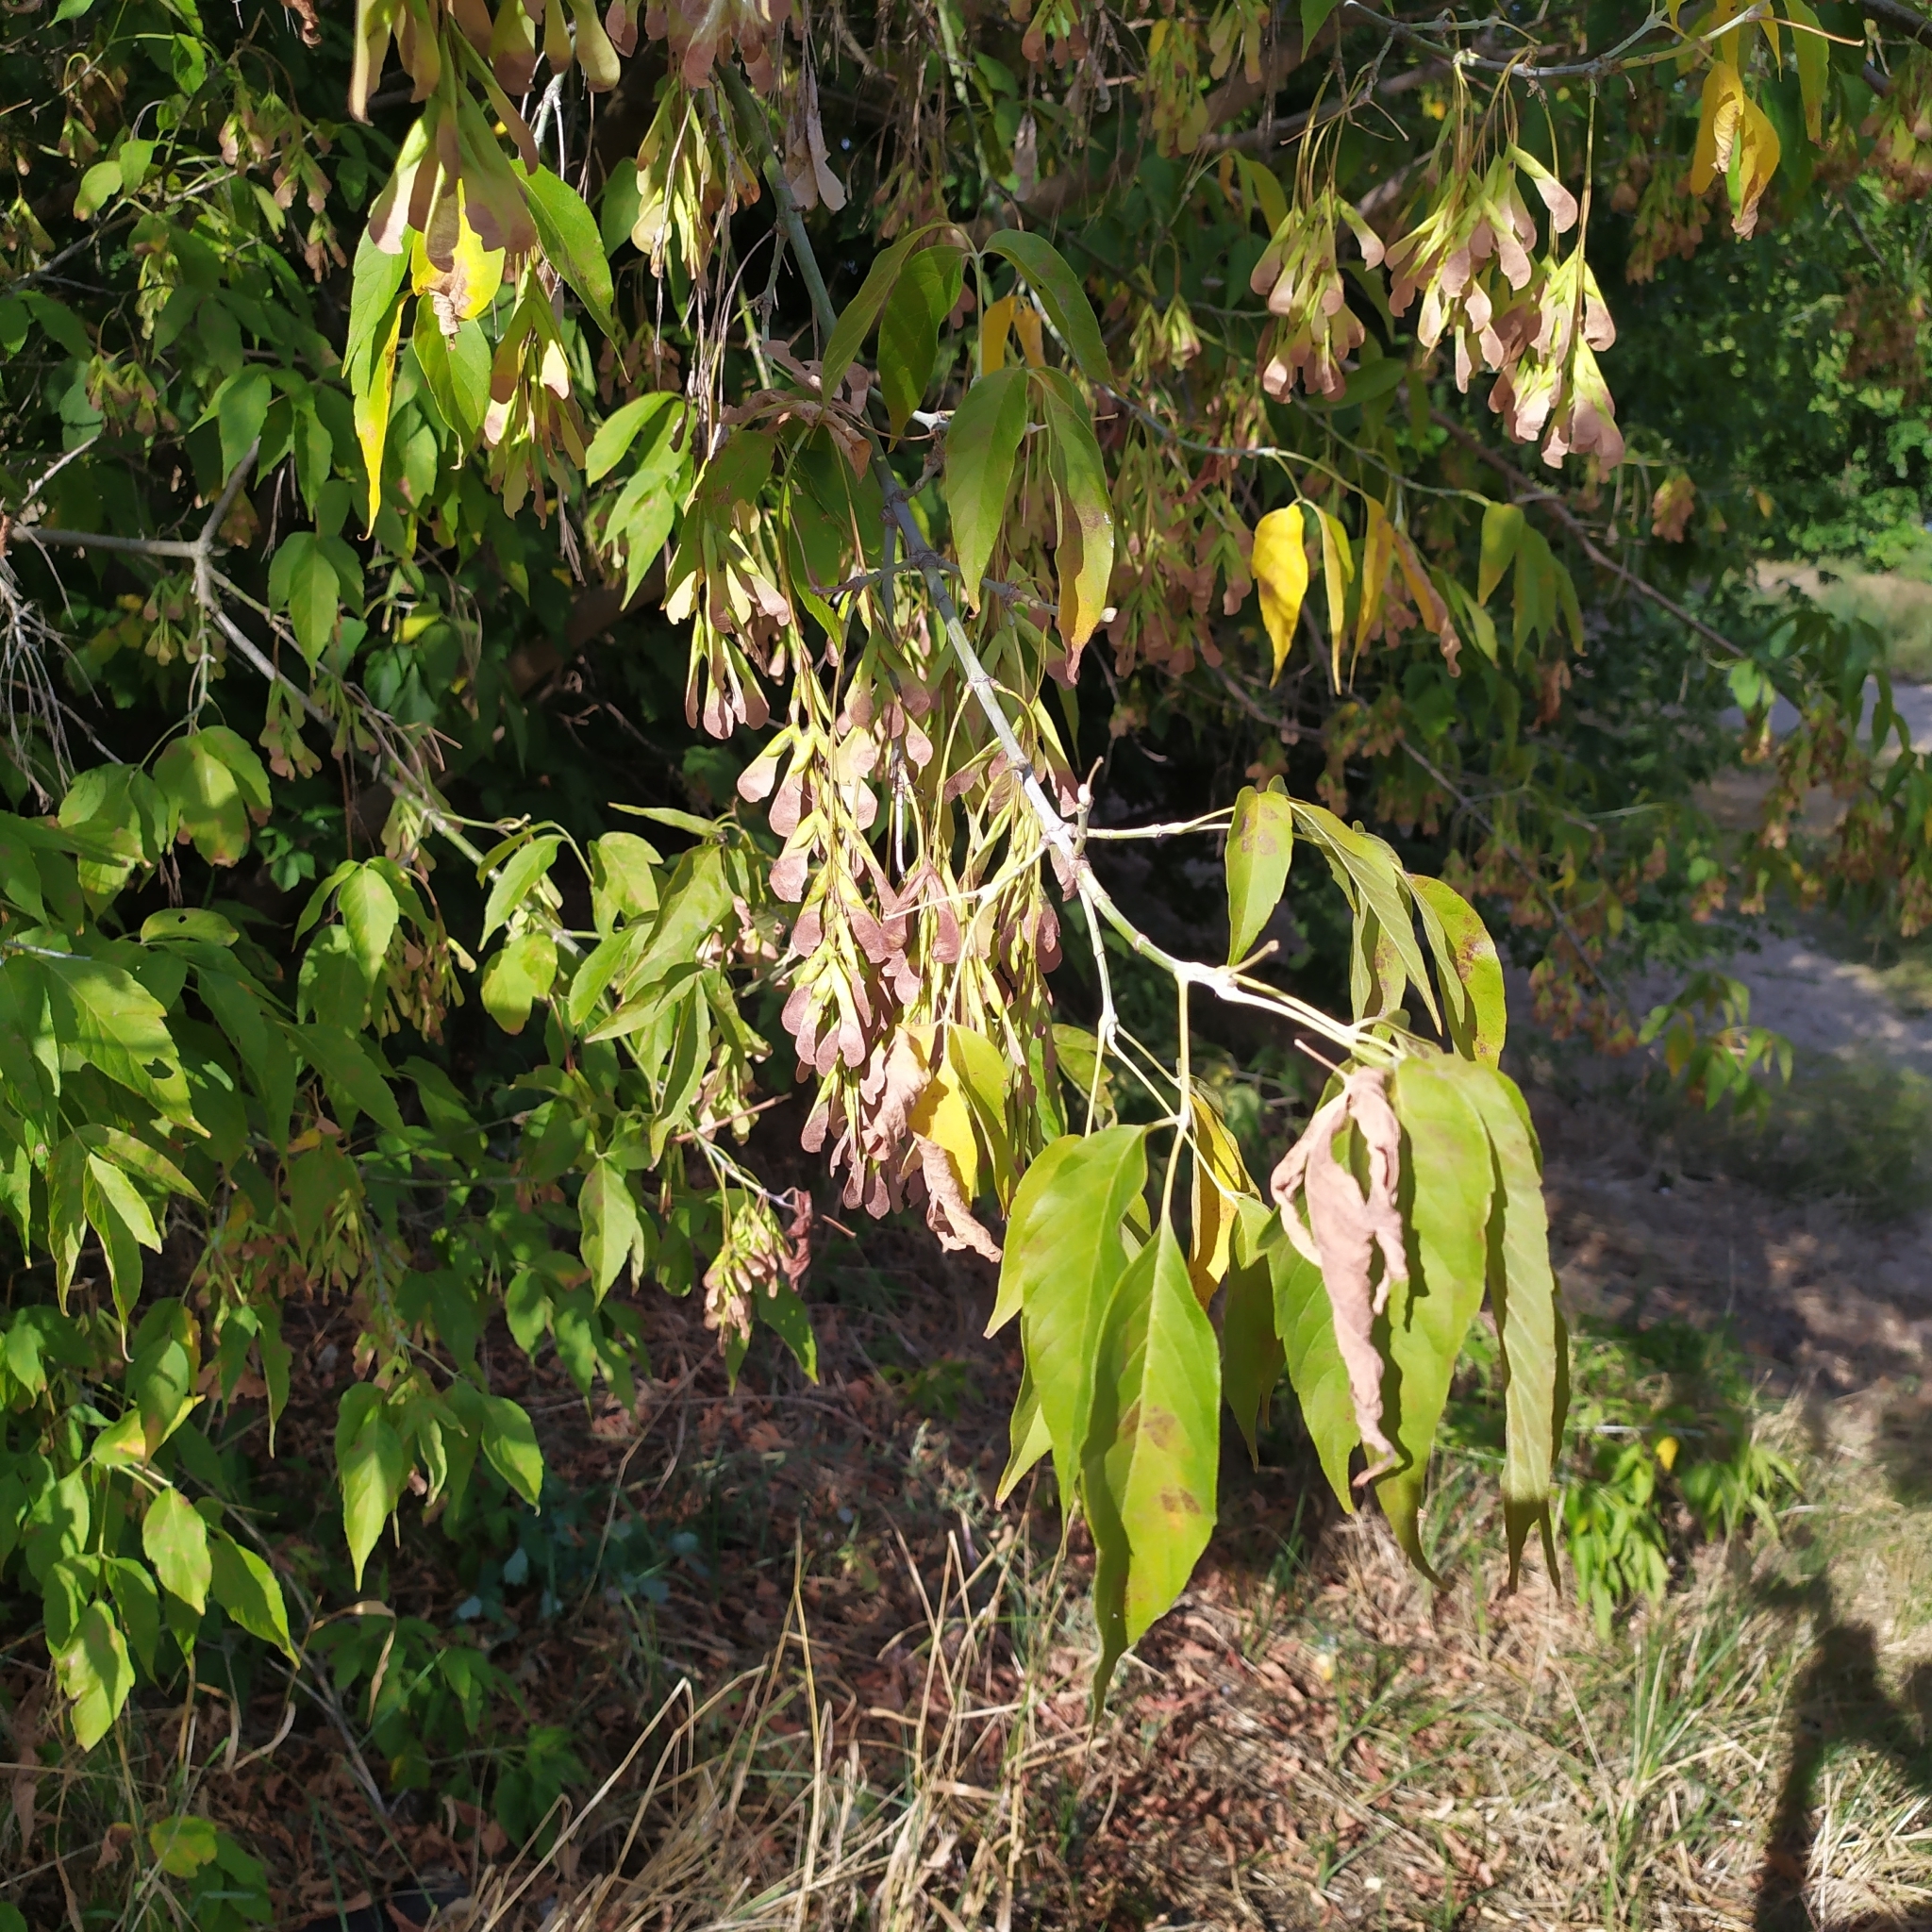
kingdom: Plantae
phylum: Tracheophyta
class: Magnoliopsida
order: Sapindales
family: Sapindaceae
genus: Acer
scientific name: Acer negundo
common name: Ashleaf maple
